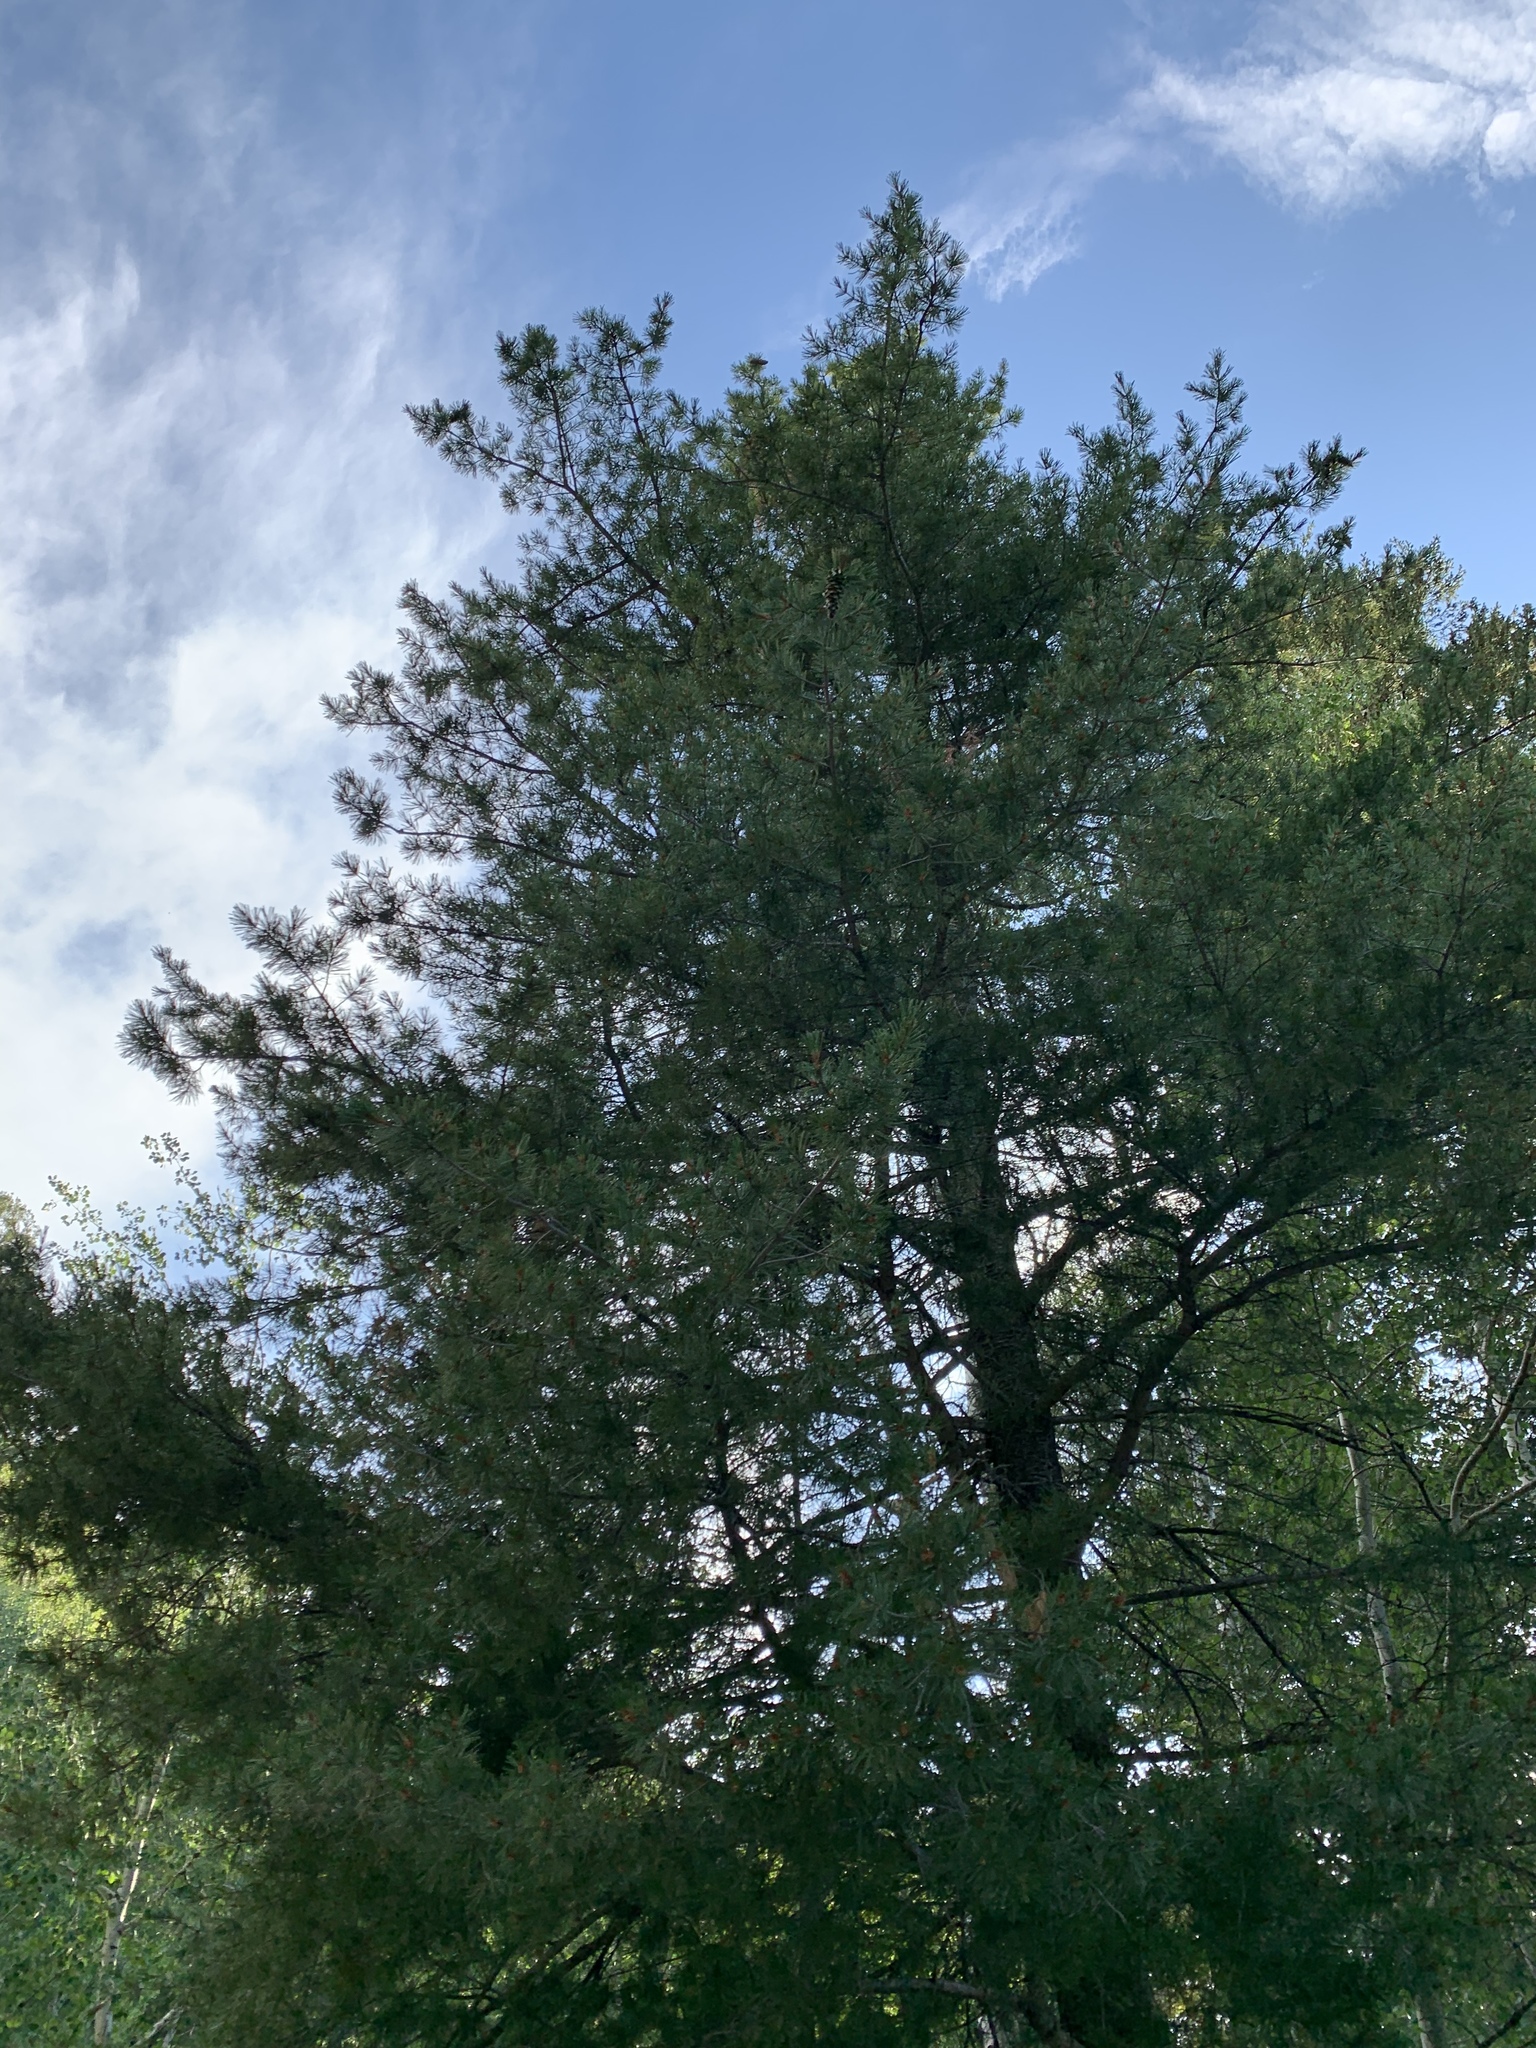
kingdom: Plantae
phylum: Tracheophyta
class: Pinopsida
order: Pinales
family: Pinaceae
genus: Pinus
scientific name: Pinus strobiformis
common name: Southwestern white pine
